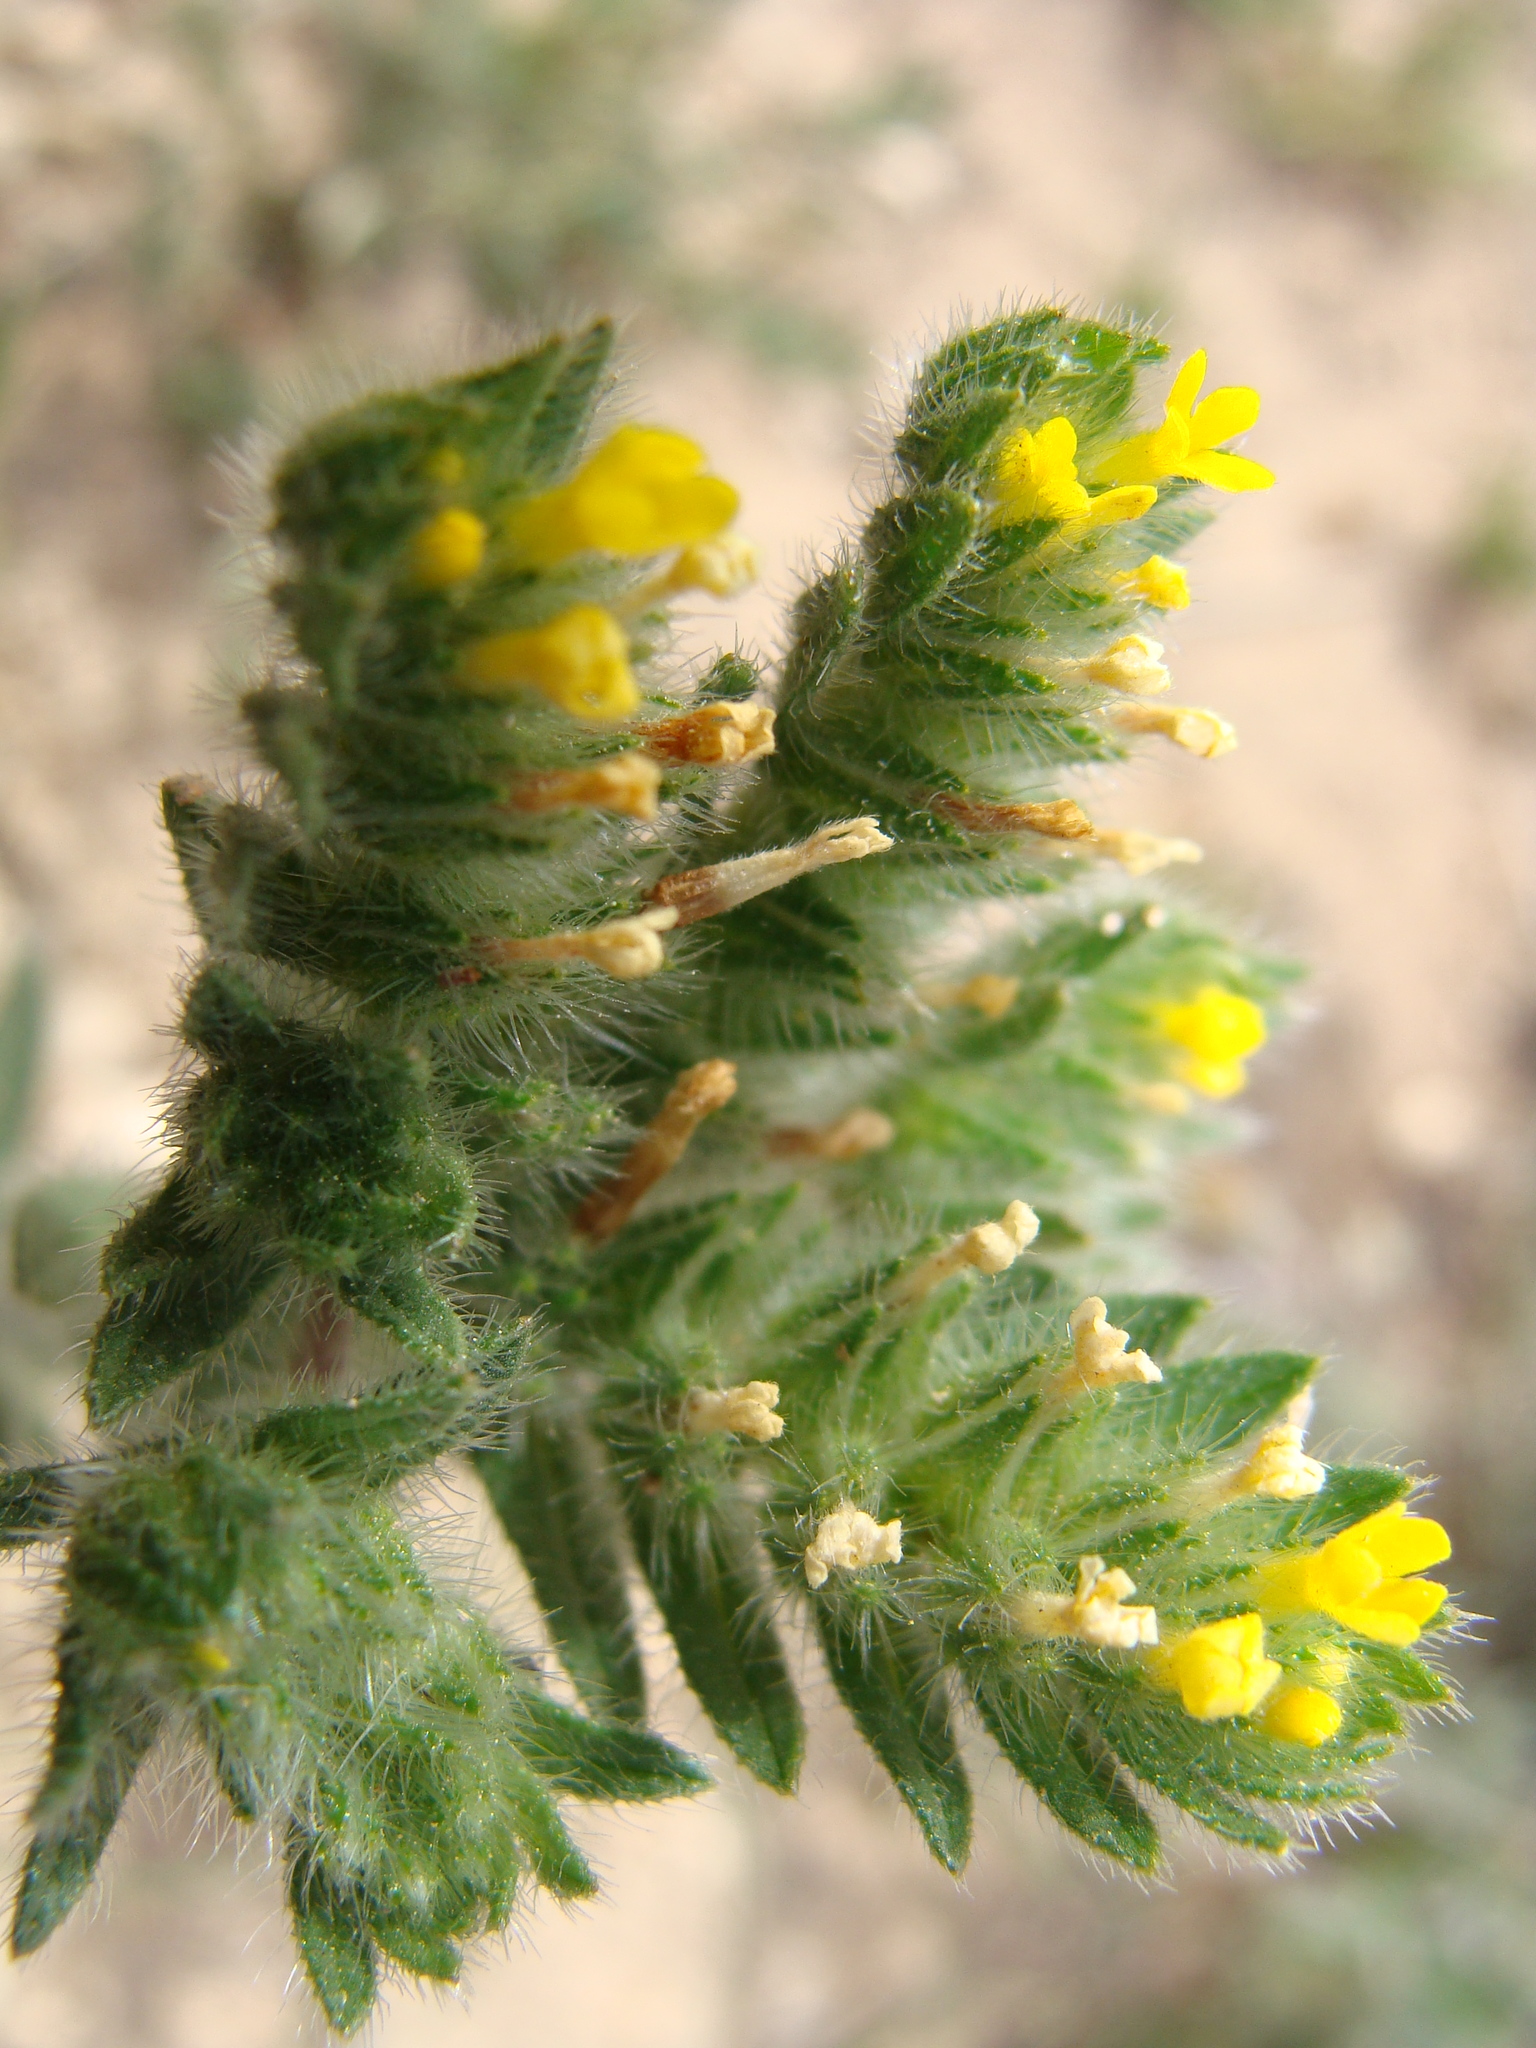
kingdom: Plantae
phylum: Tracheophyta
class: Magnoliopsida
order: Boraginales
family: Boraginaceae
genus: Neatostema
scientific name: Neatostema apulum
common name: Hairy sheepweed
